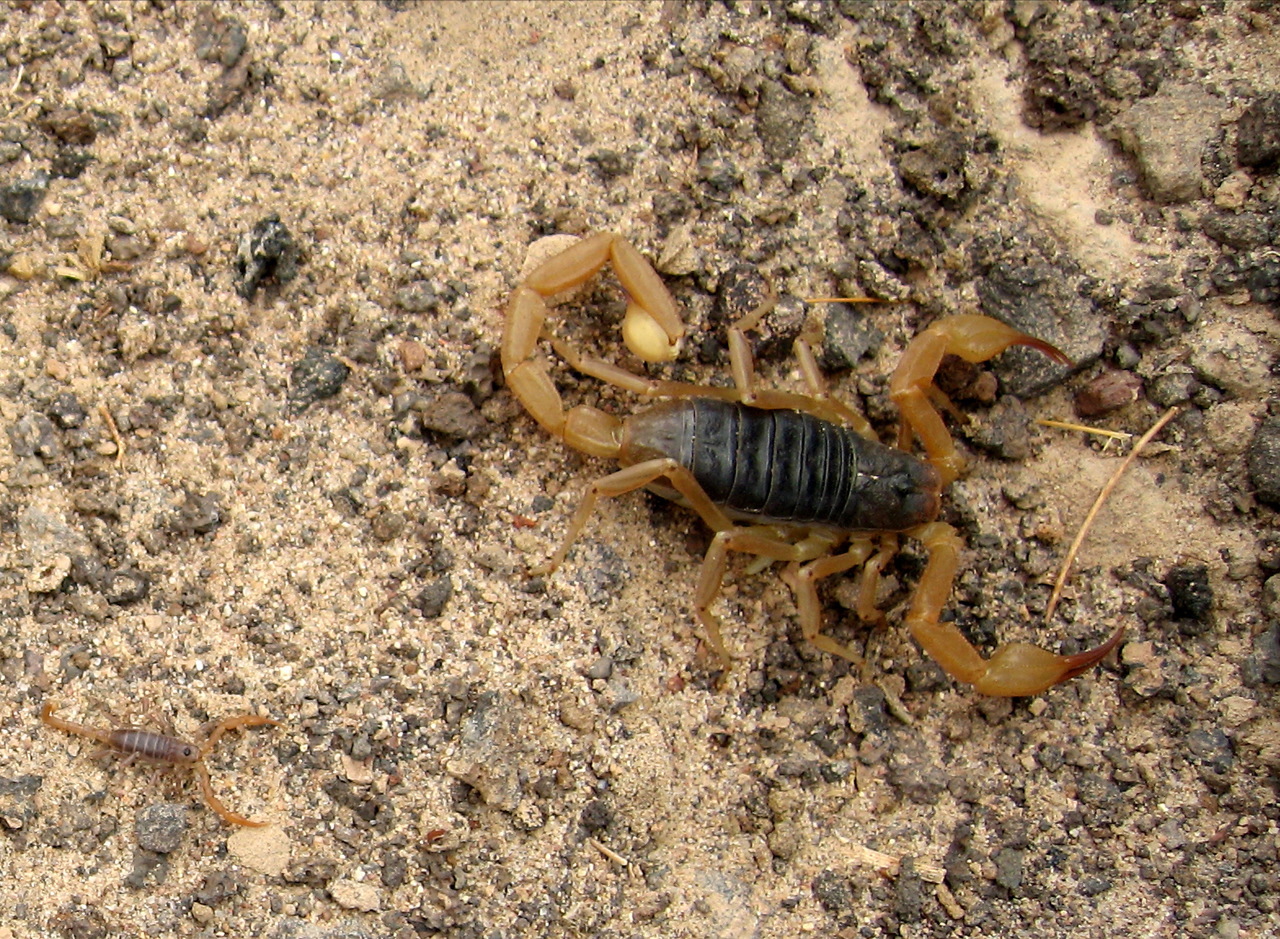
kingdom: Animalia
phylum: Arthropoda
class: Arachnida
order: Scorpiones
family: Vaejovidae
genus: Smeringurus
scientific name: Smeringurus vachoni
